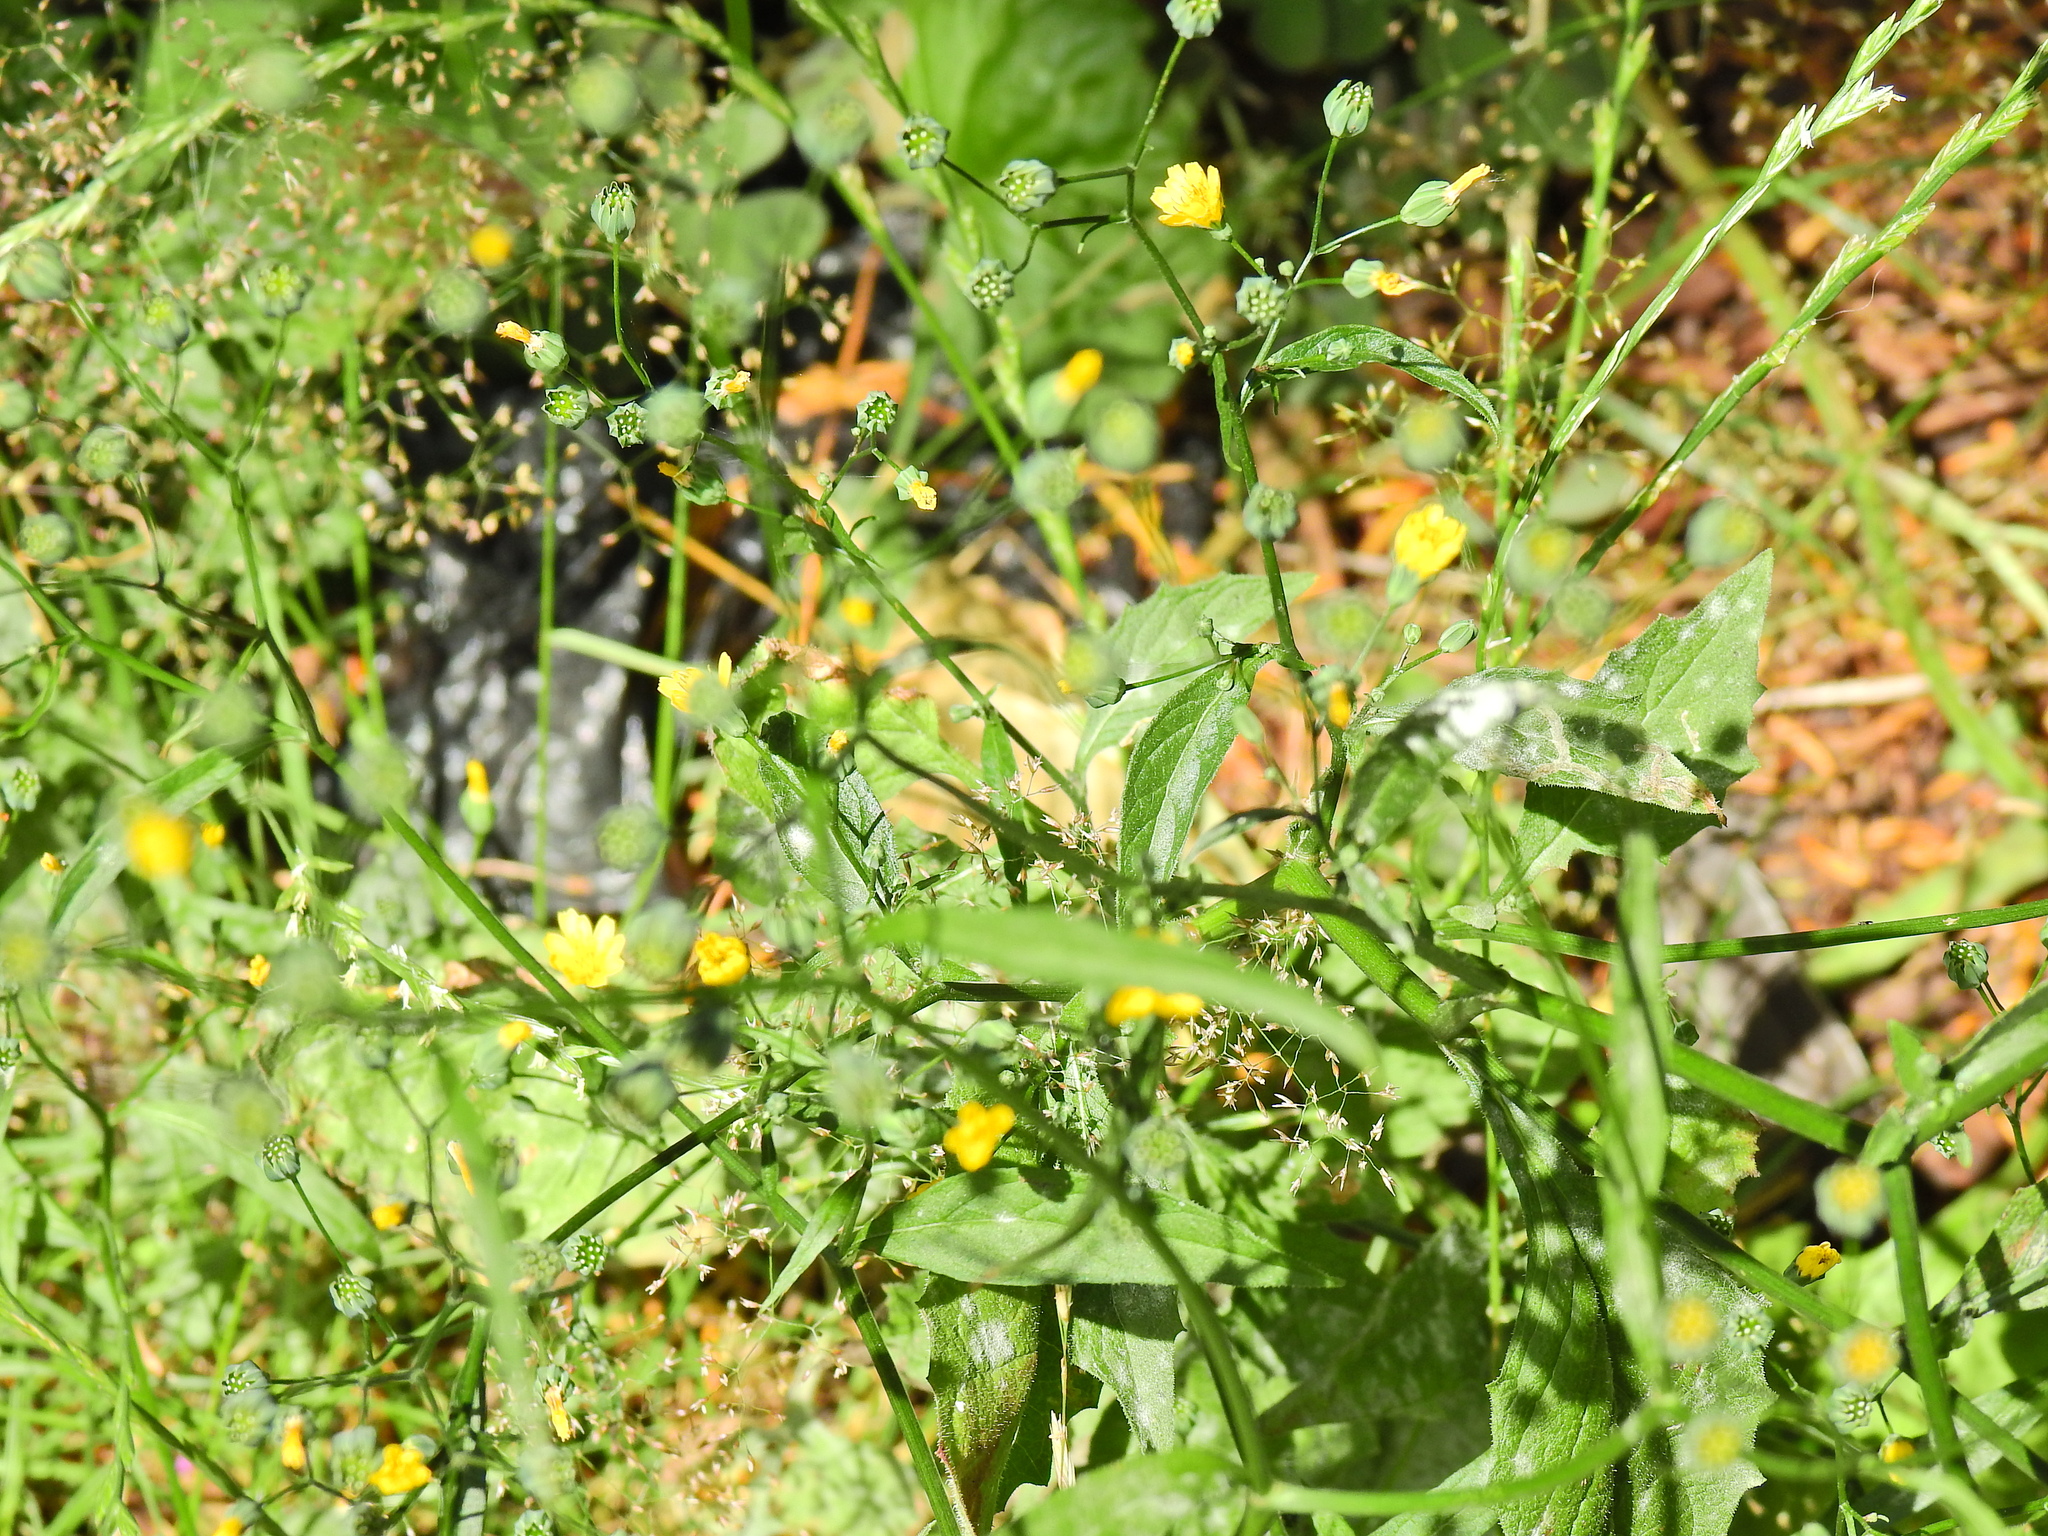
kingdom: Plantae
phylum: Tracheophyta
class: Magnoliopsida
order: Asterales
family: Asteraceae
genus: Lapsana
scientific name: Lapsana communis
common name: Nipplewort
